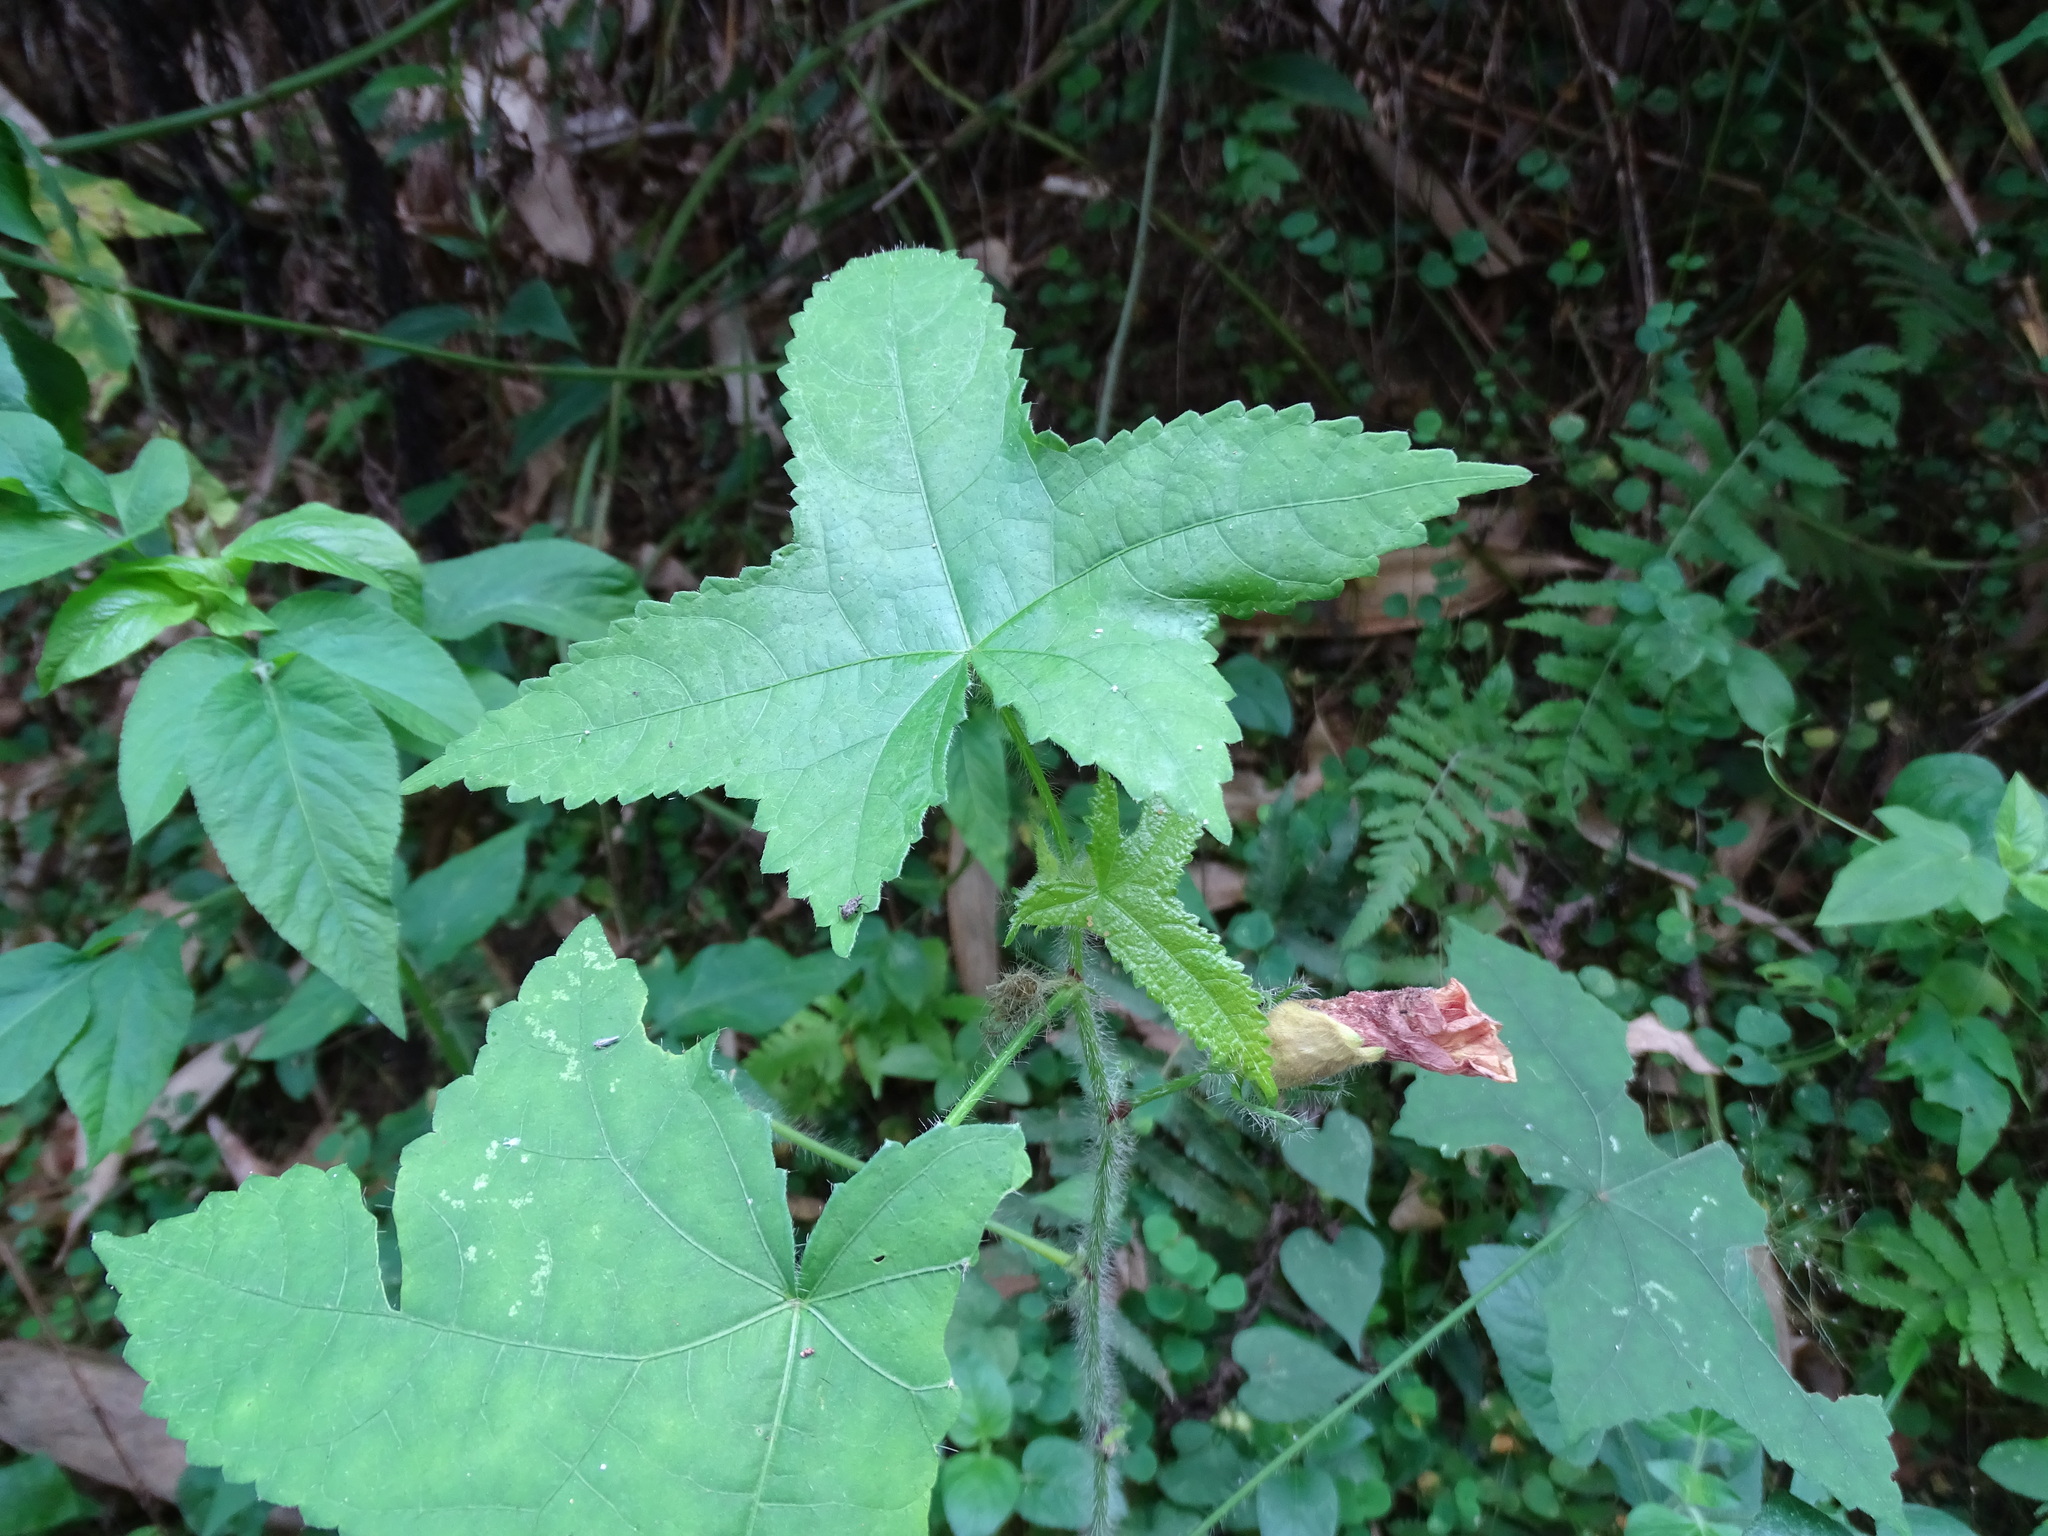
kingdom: Plantae
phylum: Tracheophyta
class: Magnoliopsida
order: Malvales
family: Malvaceae
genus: Abelmoschus
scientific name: Abelmoschus moschatus
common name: Musk okra
